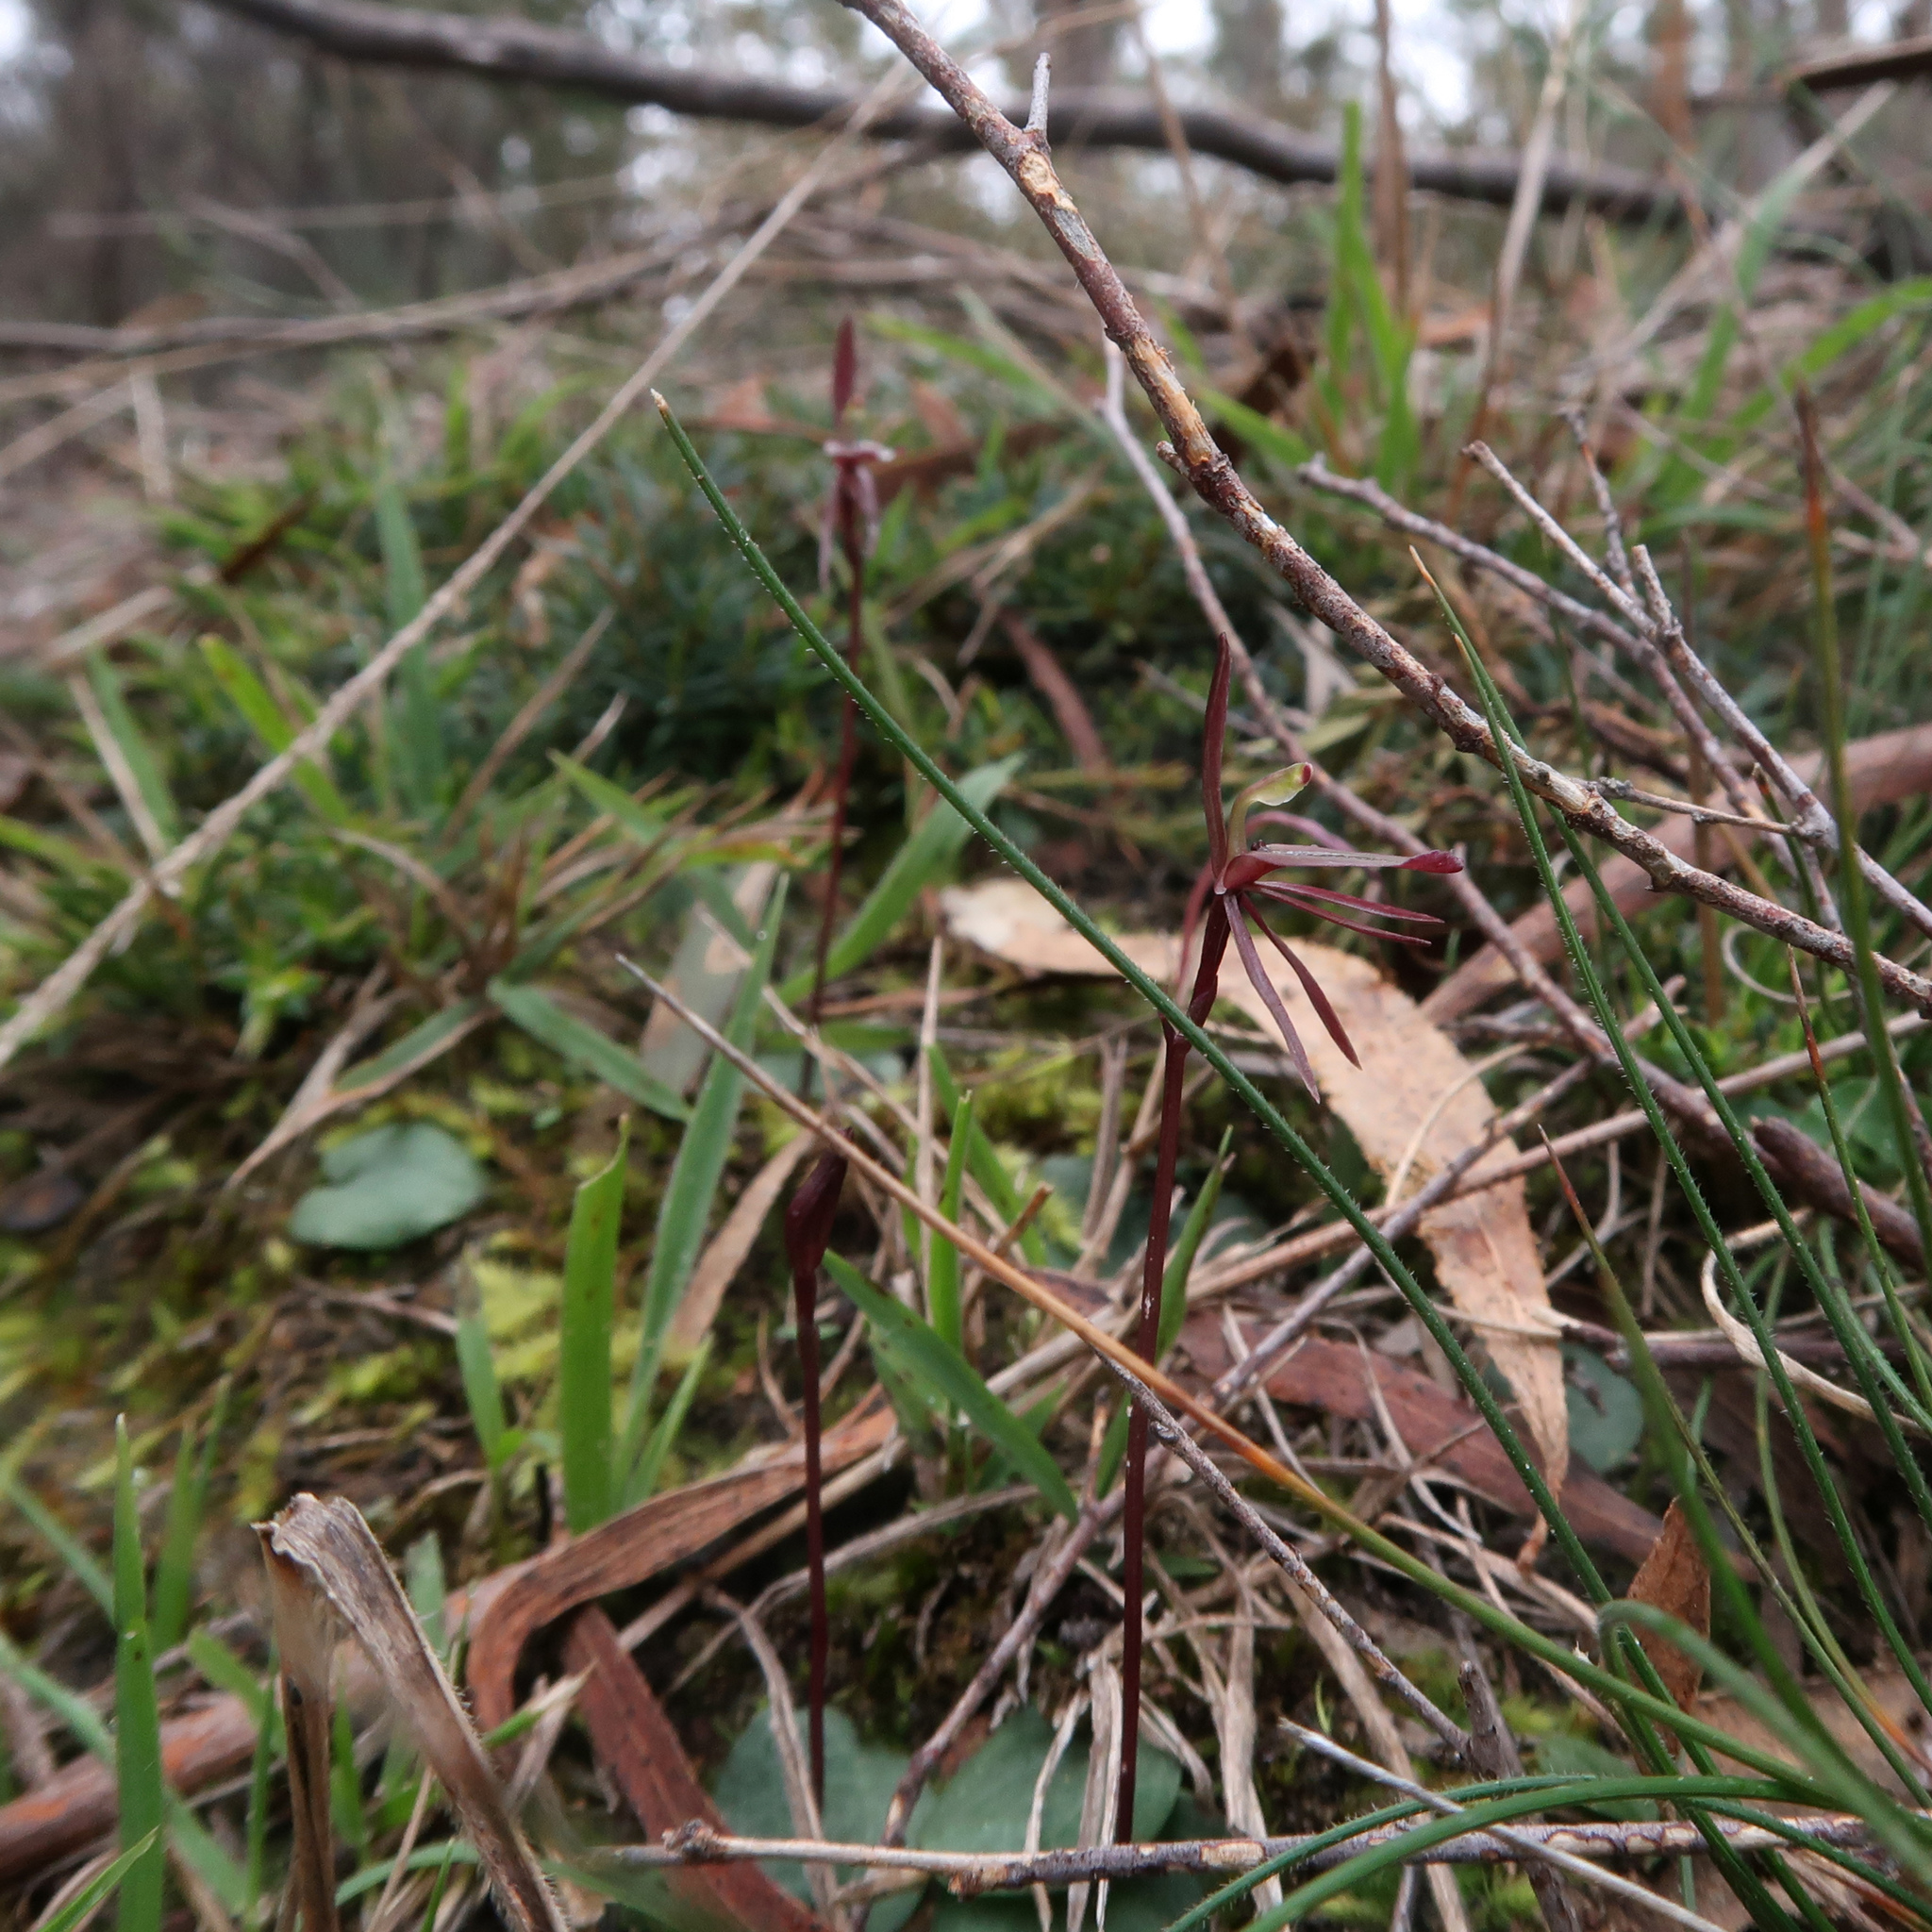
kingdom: Plantae
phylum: Tracheophyta
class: Liliopsida
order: Asparagales
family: Orchidaceae
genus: Cyrtostylis
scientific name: Cyrtostylis reniformis
